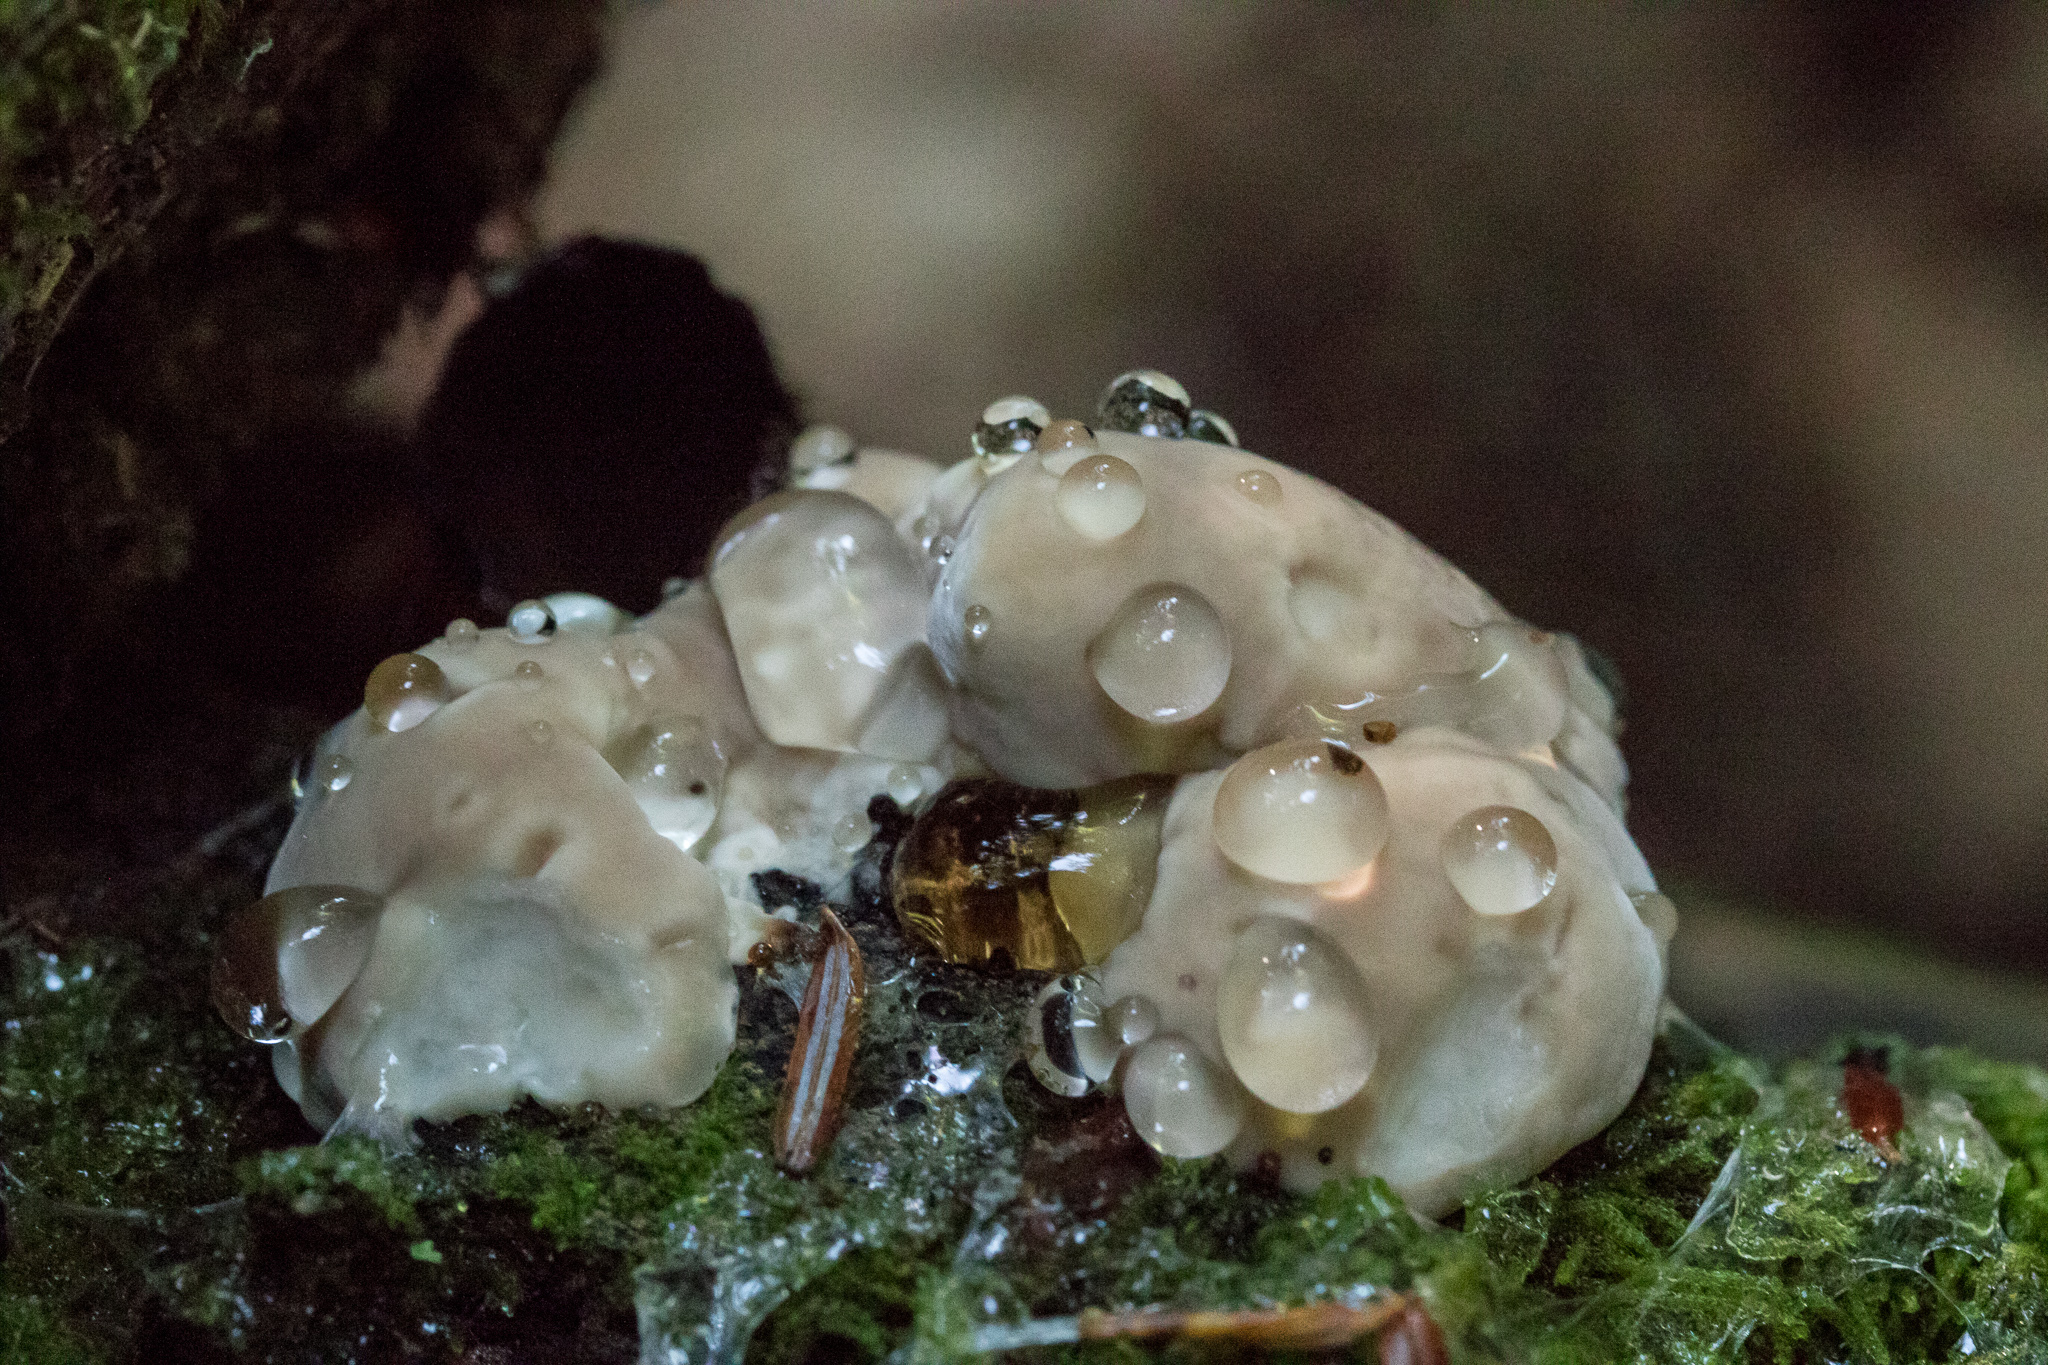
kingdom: Fungi
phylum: Basidiomycota
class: Agaricomycetes
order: Polyporales
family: Fomitopsidaceae
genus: Niveoporofomes
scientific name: Niveoporofomes spraguei
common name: Green cheese polypore
